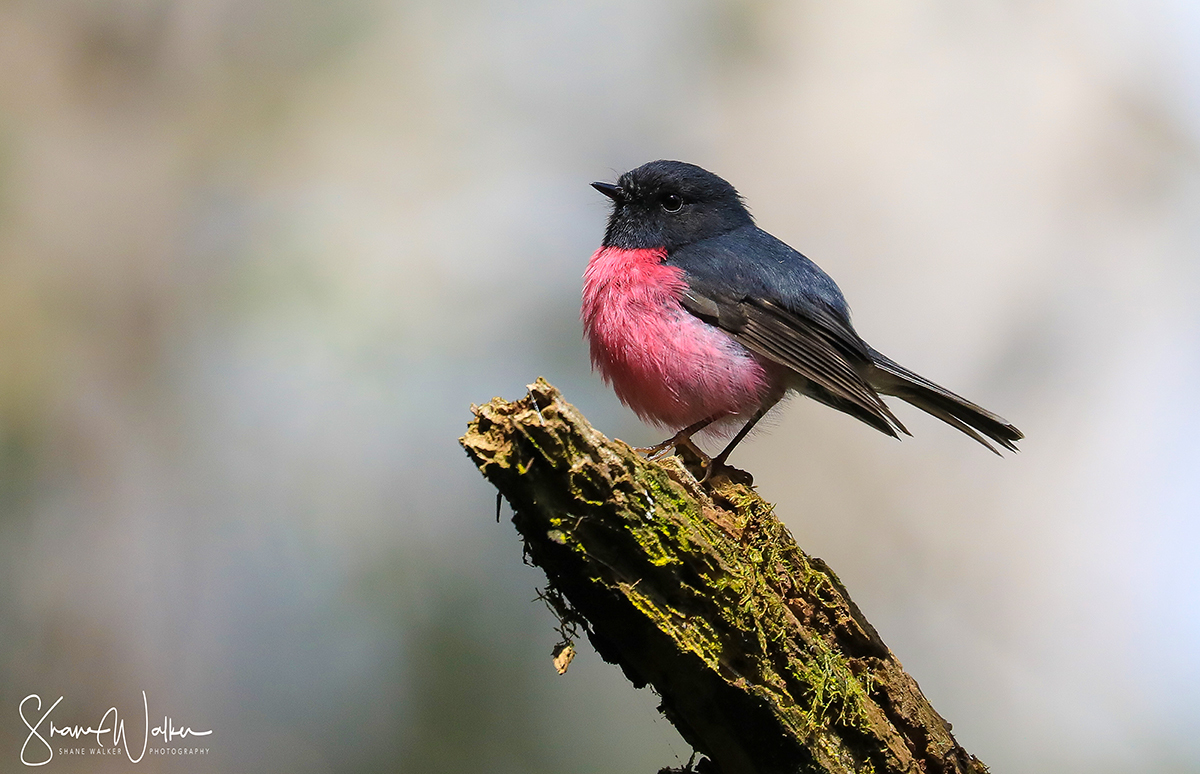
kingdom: Animalia
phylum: Chordata
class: Aves
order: Passeriformes
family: Petroicidae
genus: Petroica
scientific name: Petroica rodinogaster
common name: Pink robin
